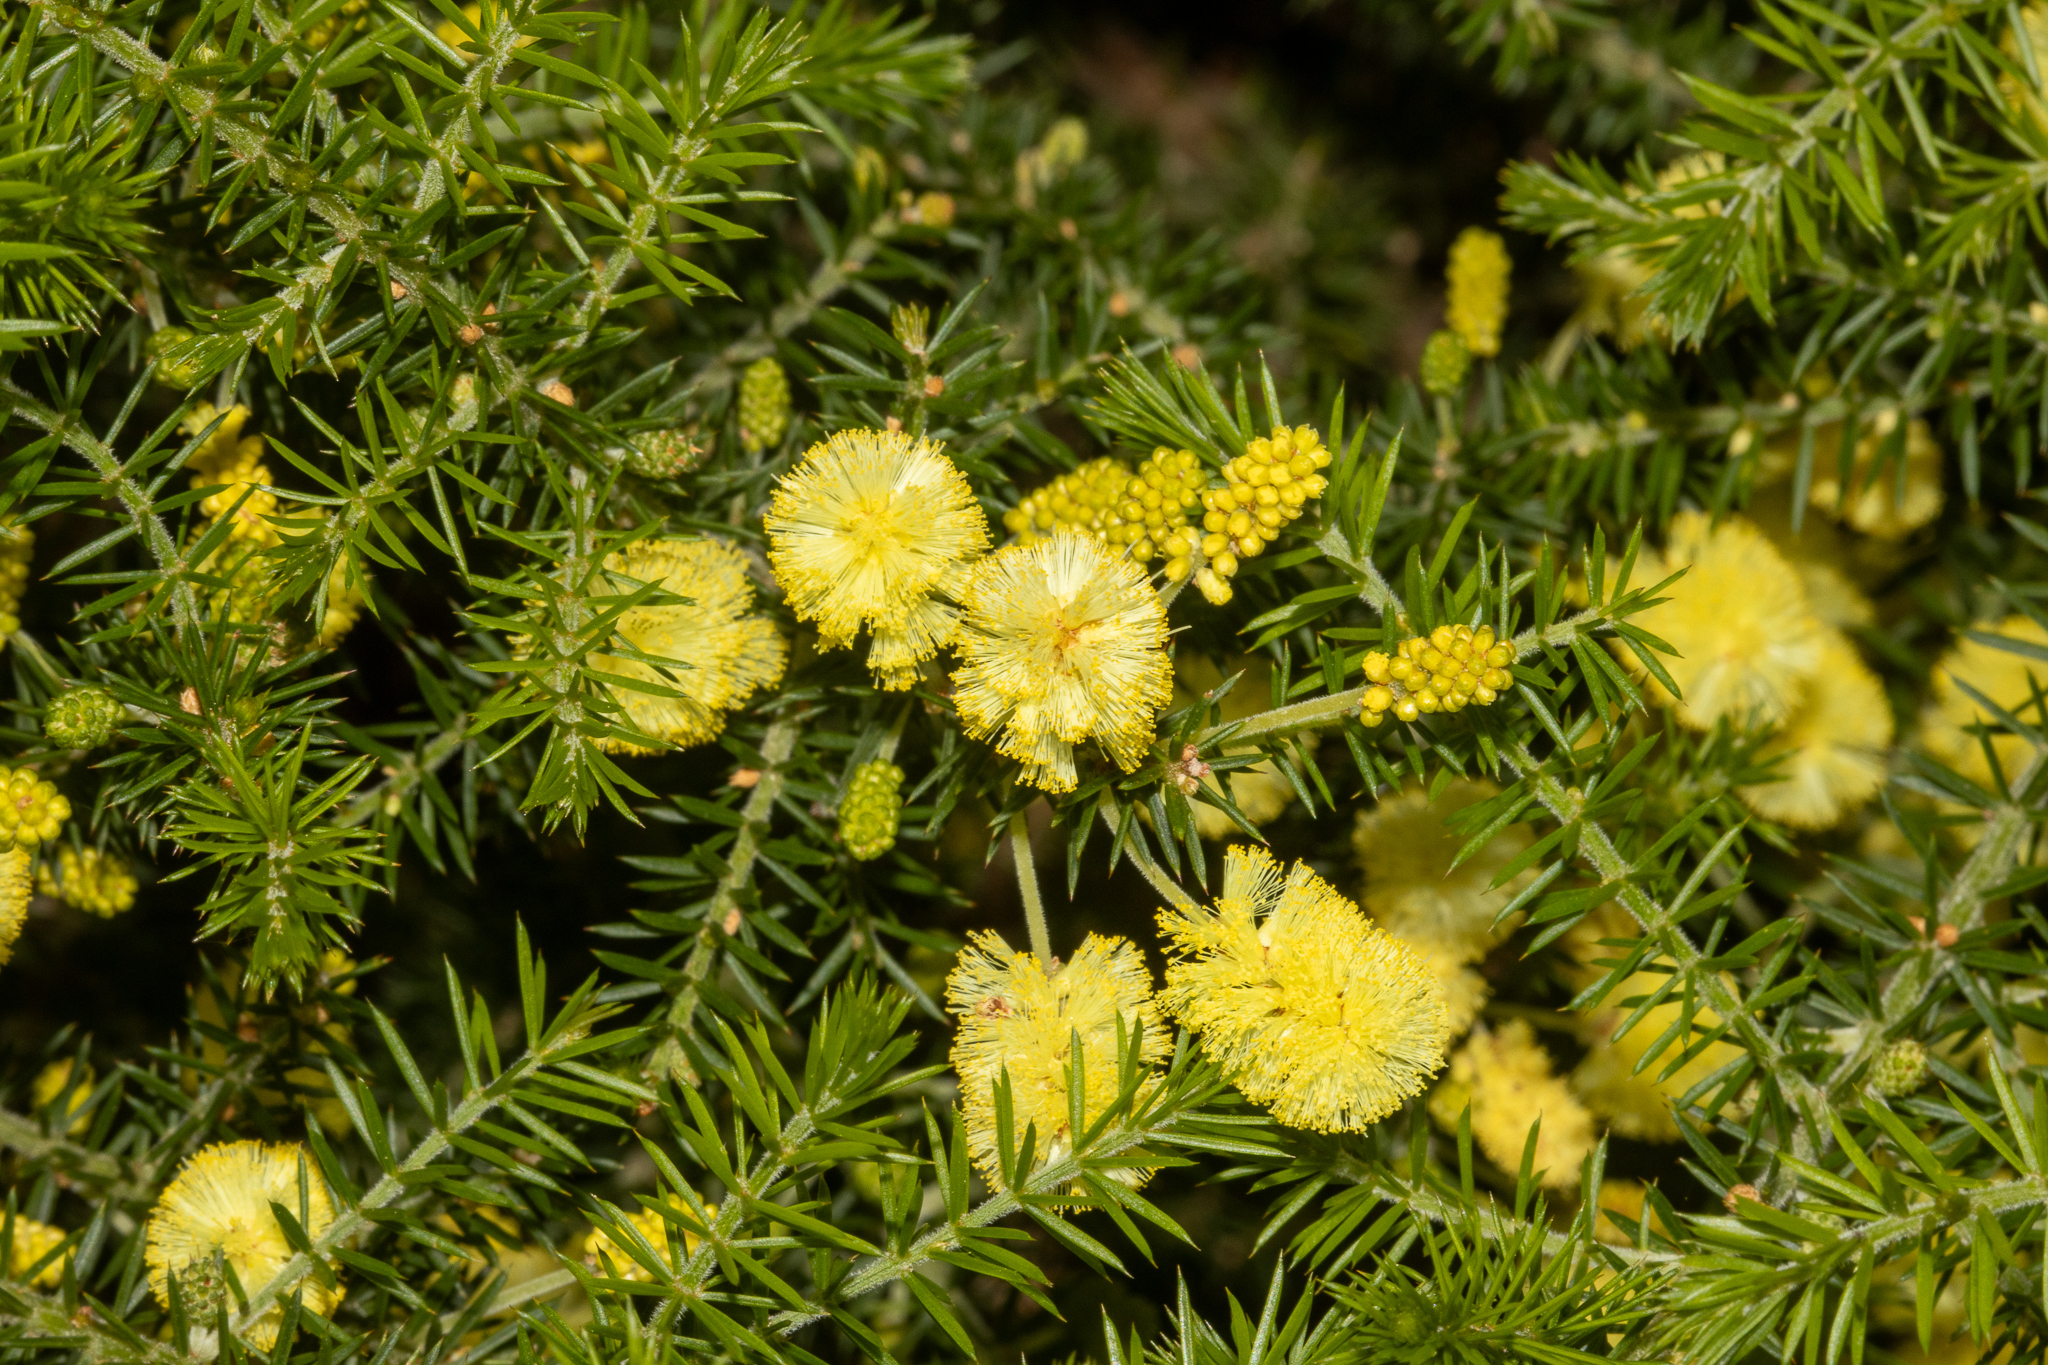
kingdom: Plantae
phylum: Tracheophyta
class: Magnoliopsida
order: Fabales
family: Fabaceae
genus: Acacia
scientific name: Acacia verticillata
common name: Prickly moses
